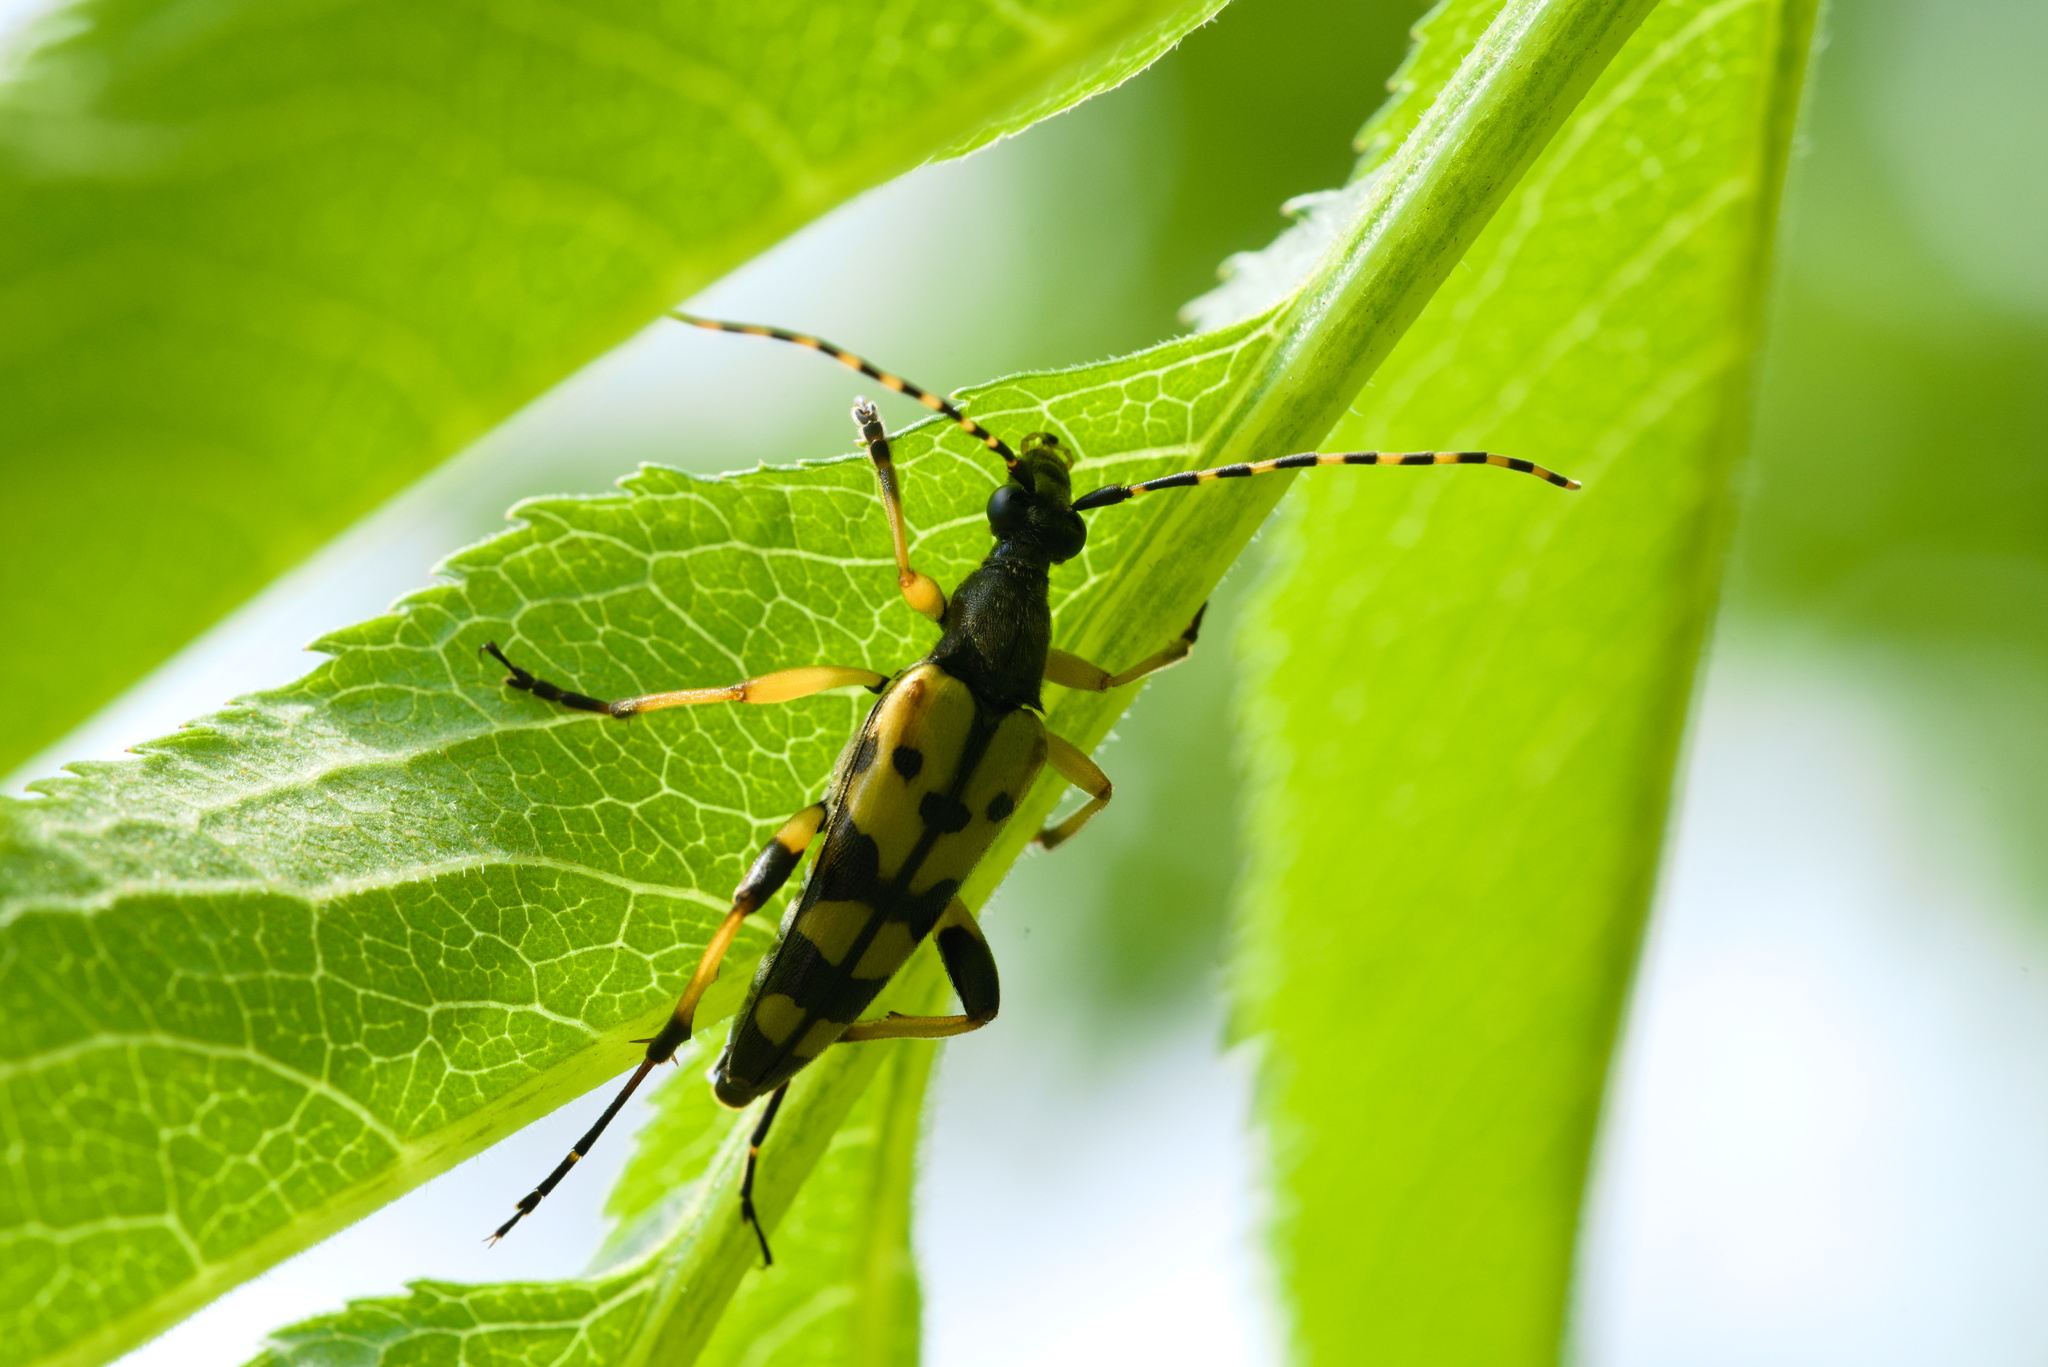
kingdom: Animalia
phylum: Arthropoda
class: Insecta
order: Coleoptera
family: Cerambycidae
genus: Rutpela
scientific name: Rutpela maculata
